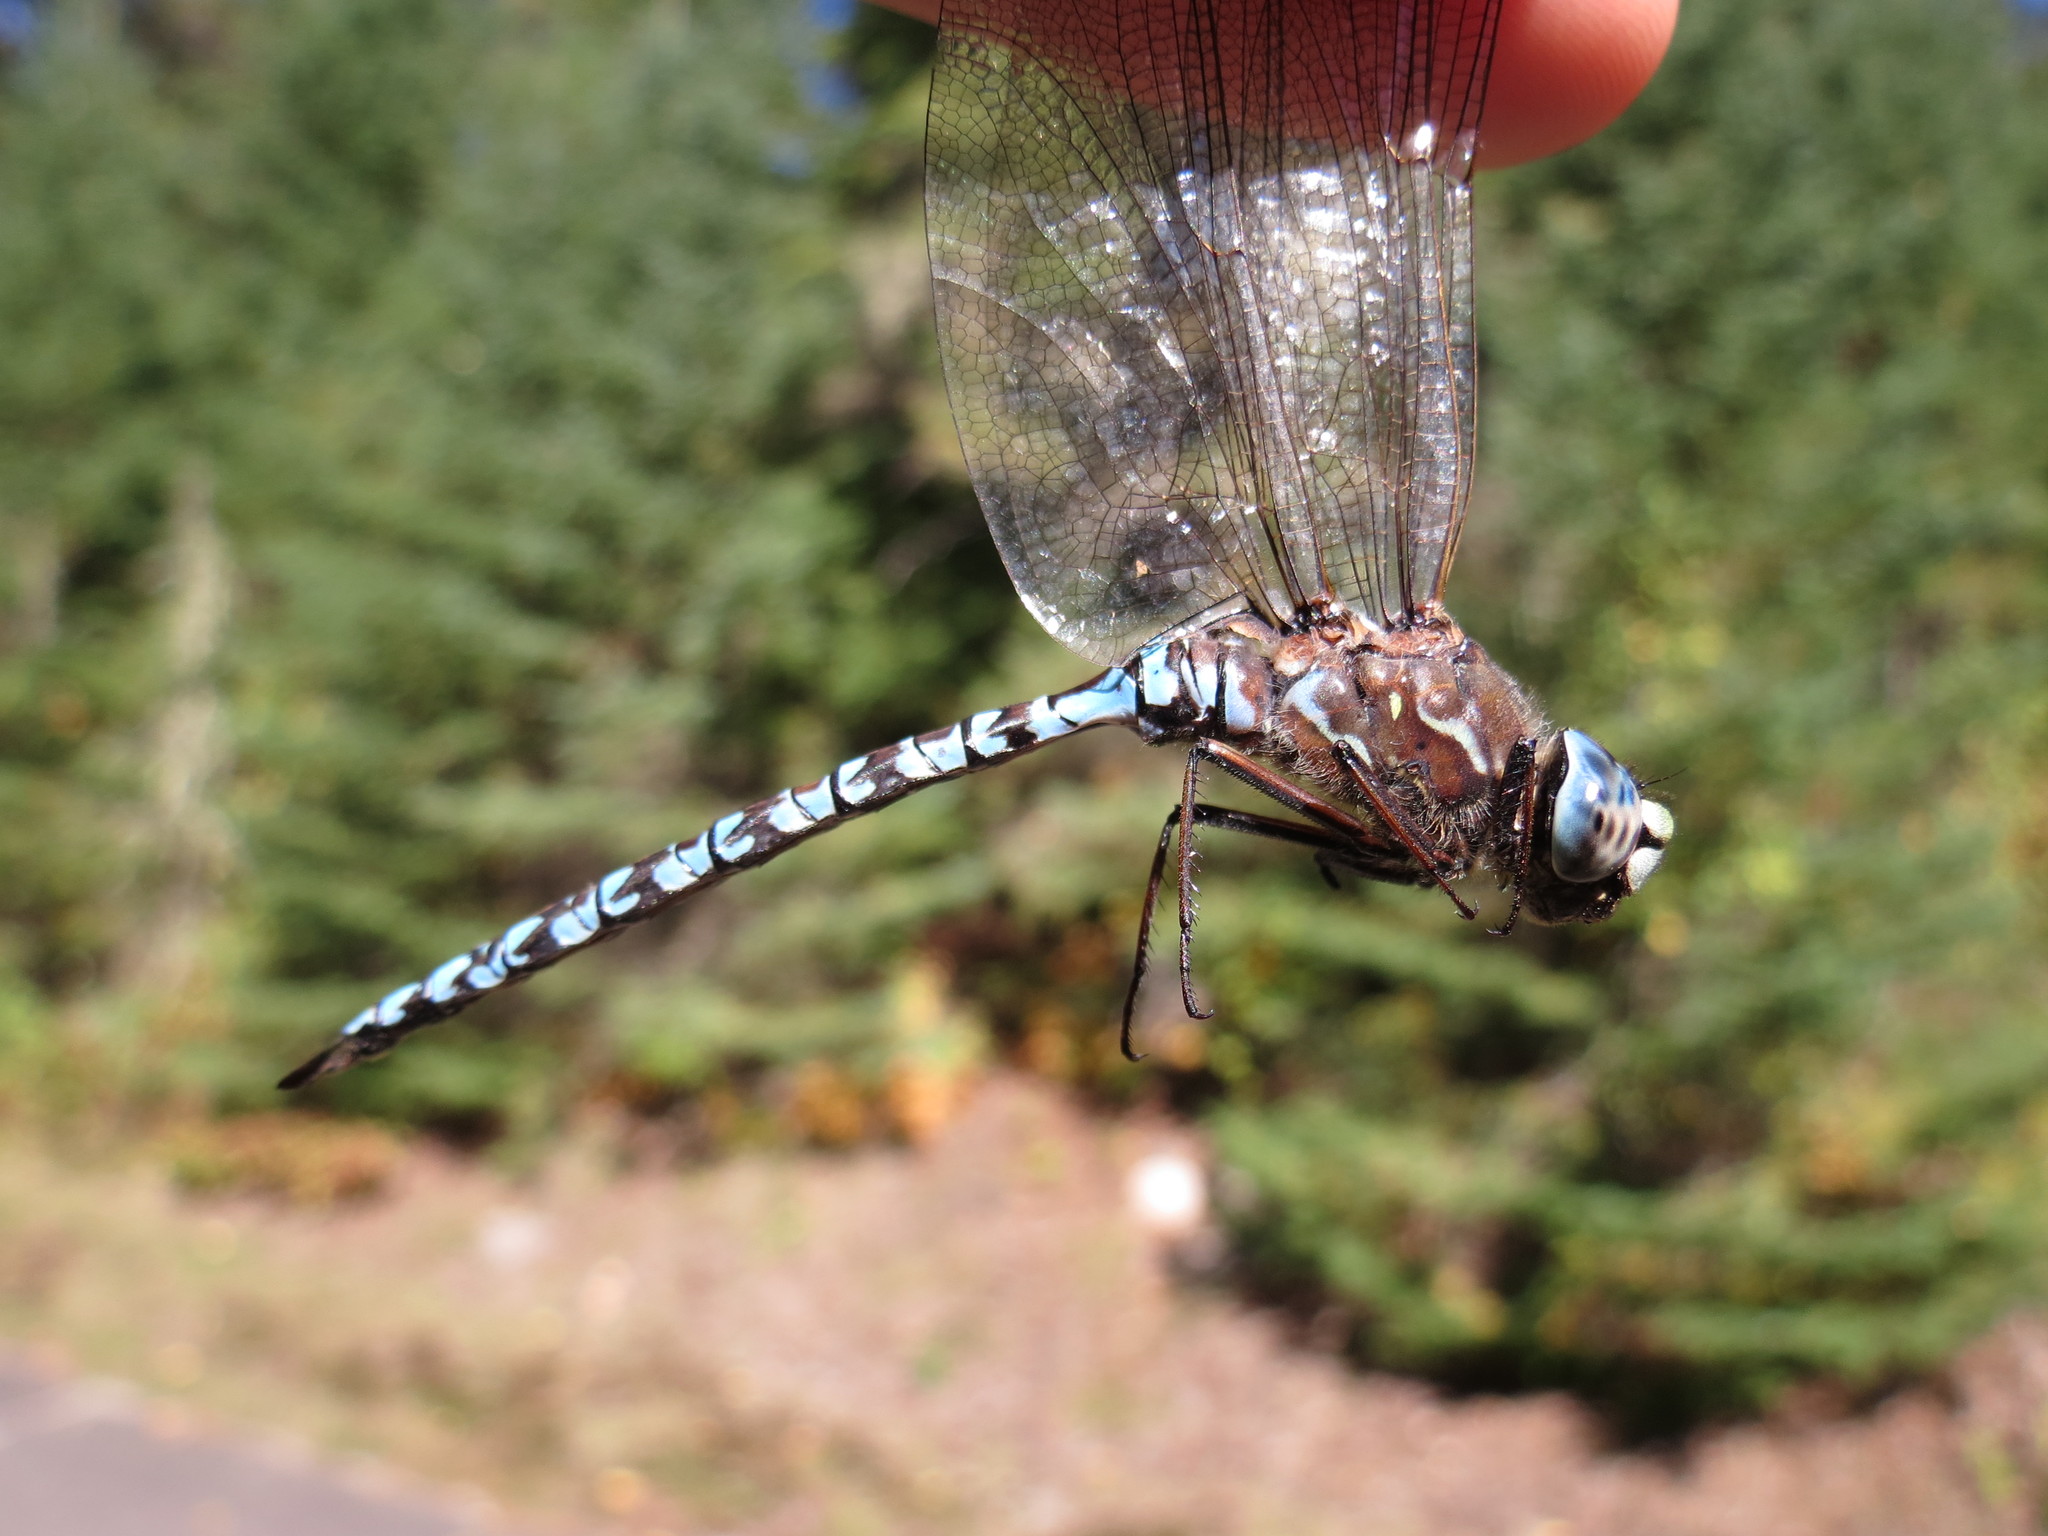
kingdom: Animalia
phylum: Arthropoda
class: Insecta
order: Odonata
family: Aeshnidae
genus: Aeshna
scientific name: Aeshna sitchensis
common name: Zigzag darner
